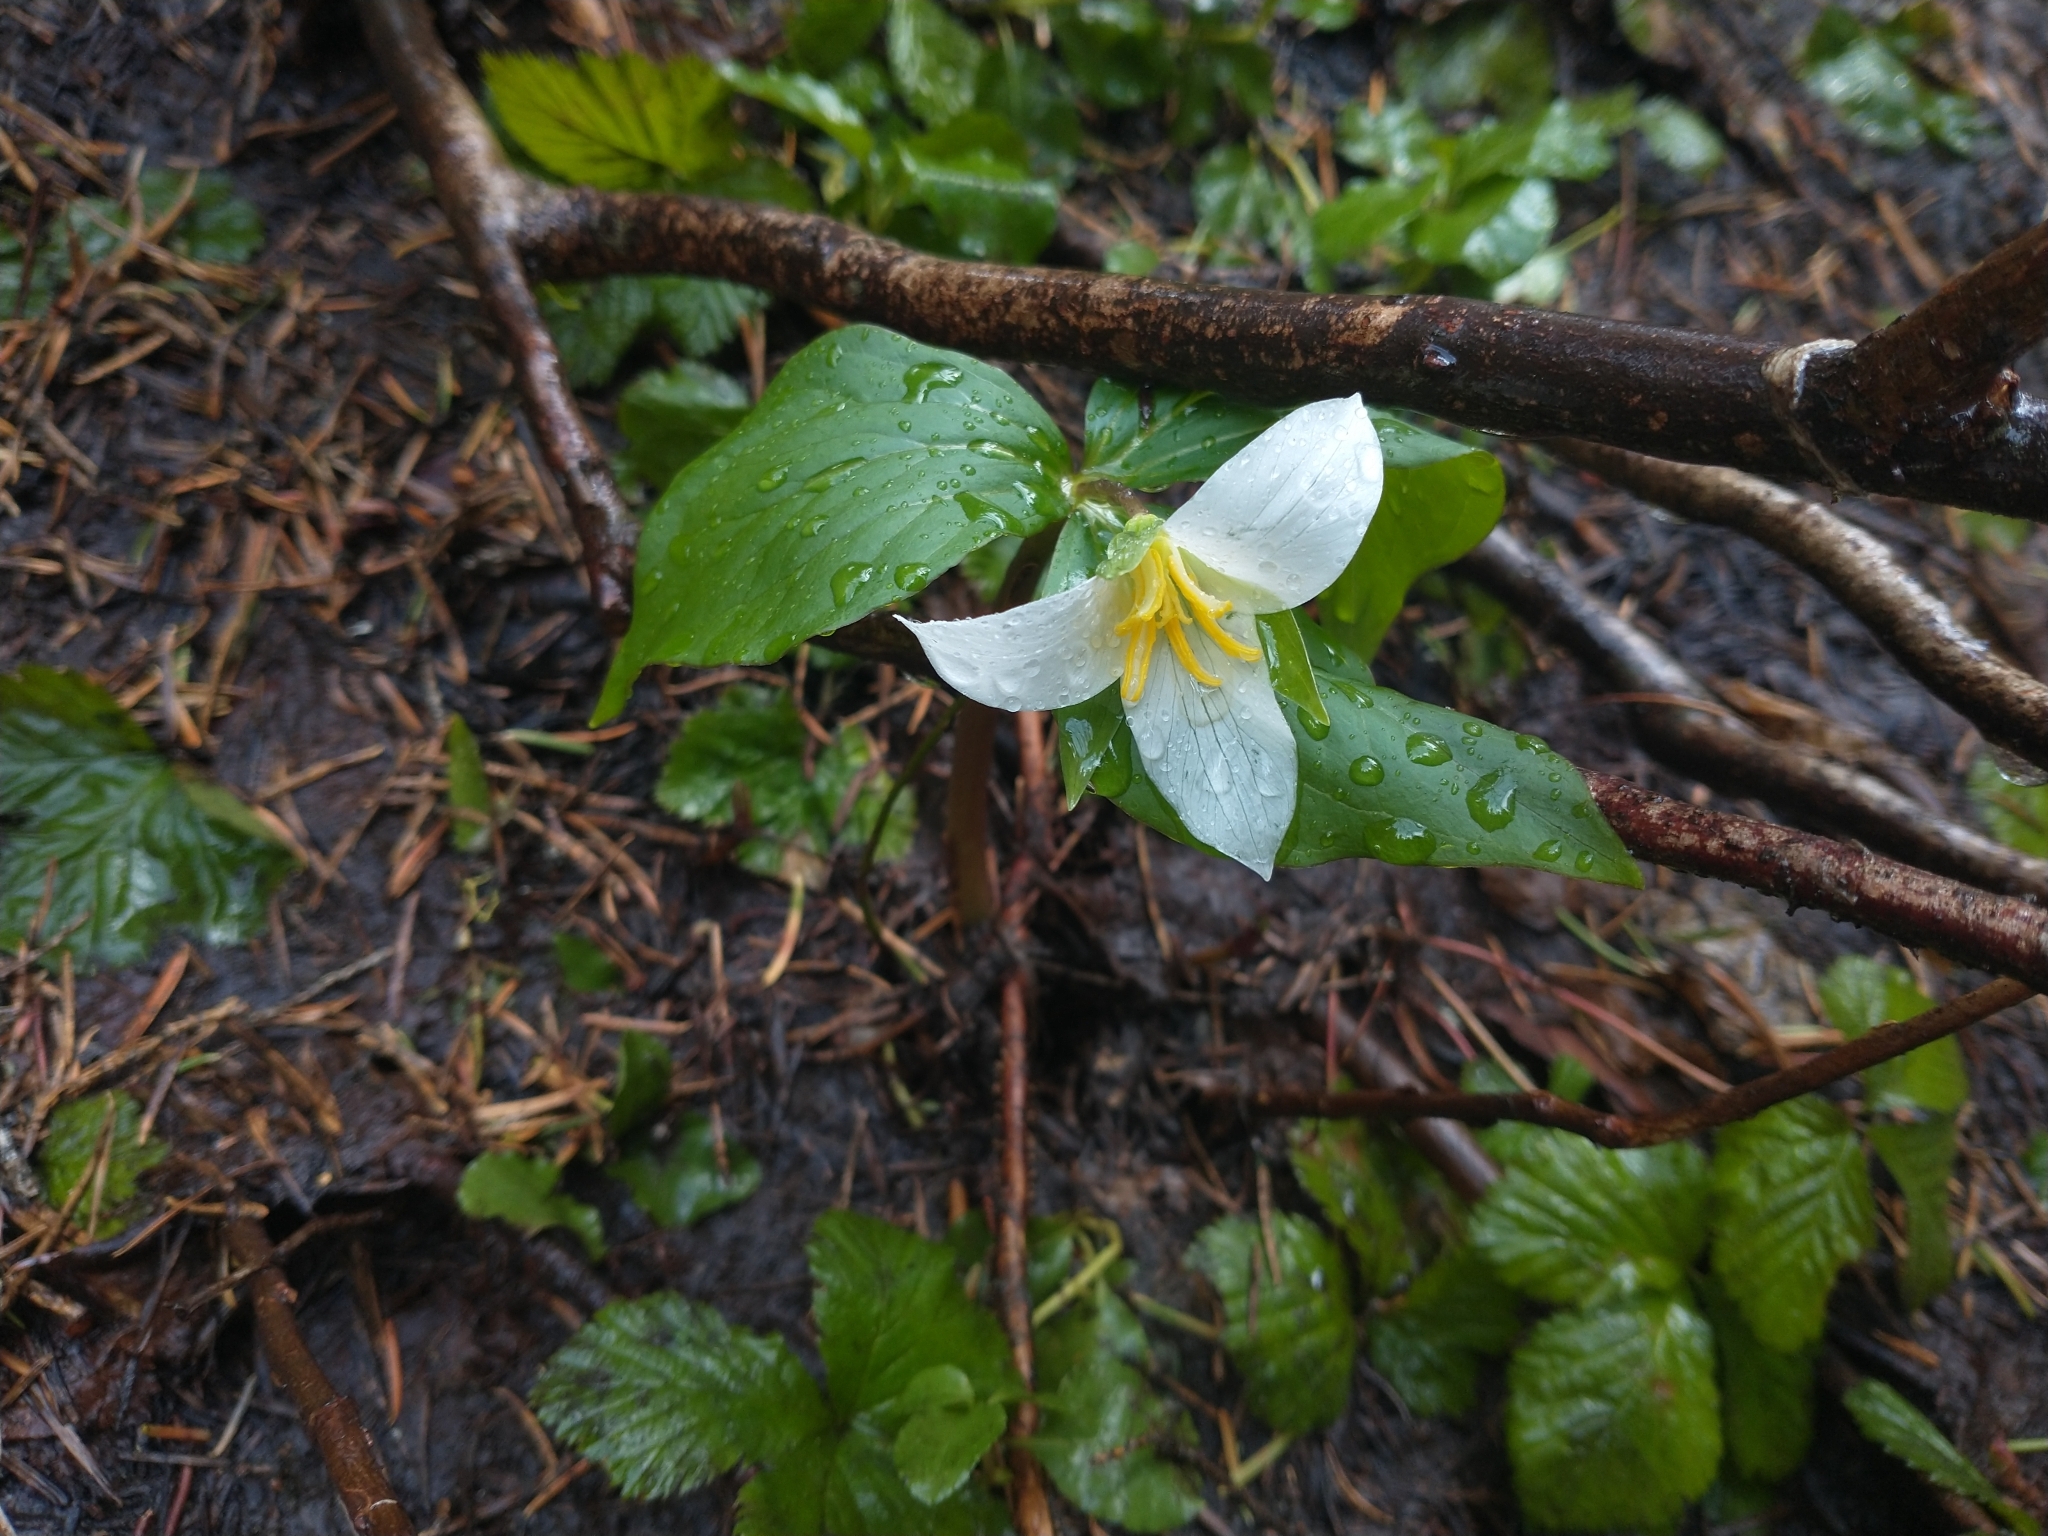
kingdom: Plantae
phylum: Tracheophyta
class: Liliopsida
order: Liliales
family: Melanthiaceae
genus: Trillium
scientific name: Trillium ovatum
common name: Pacific trillium
